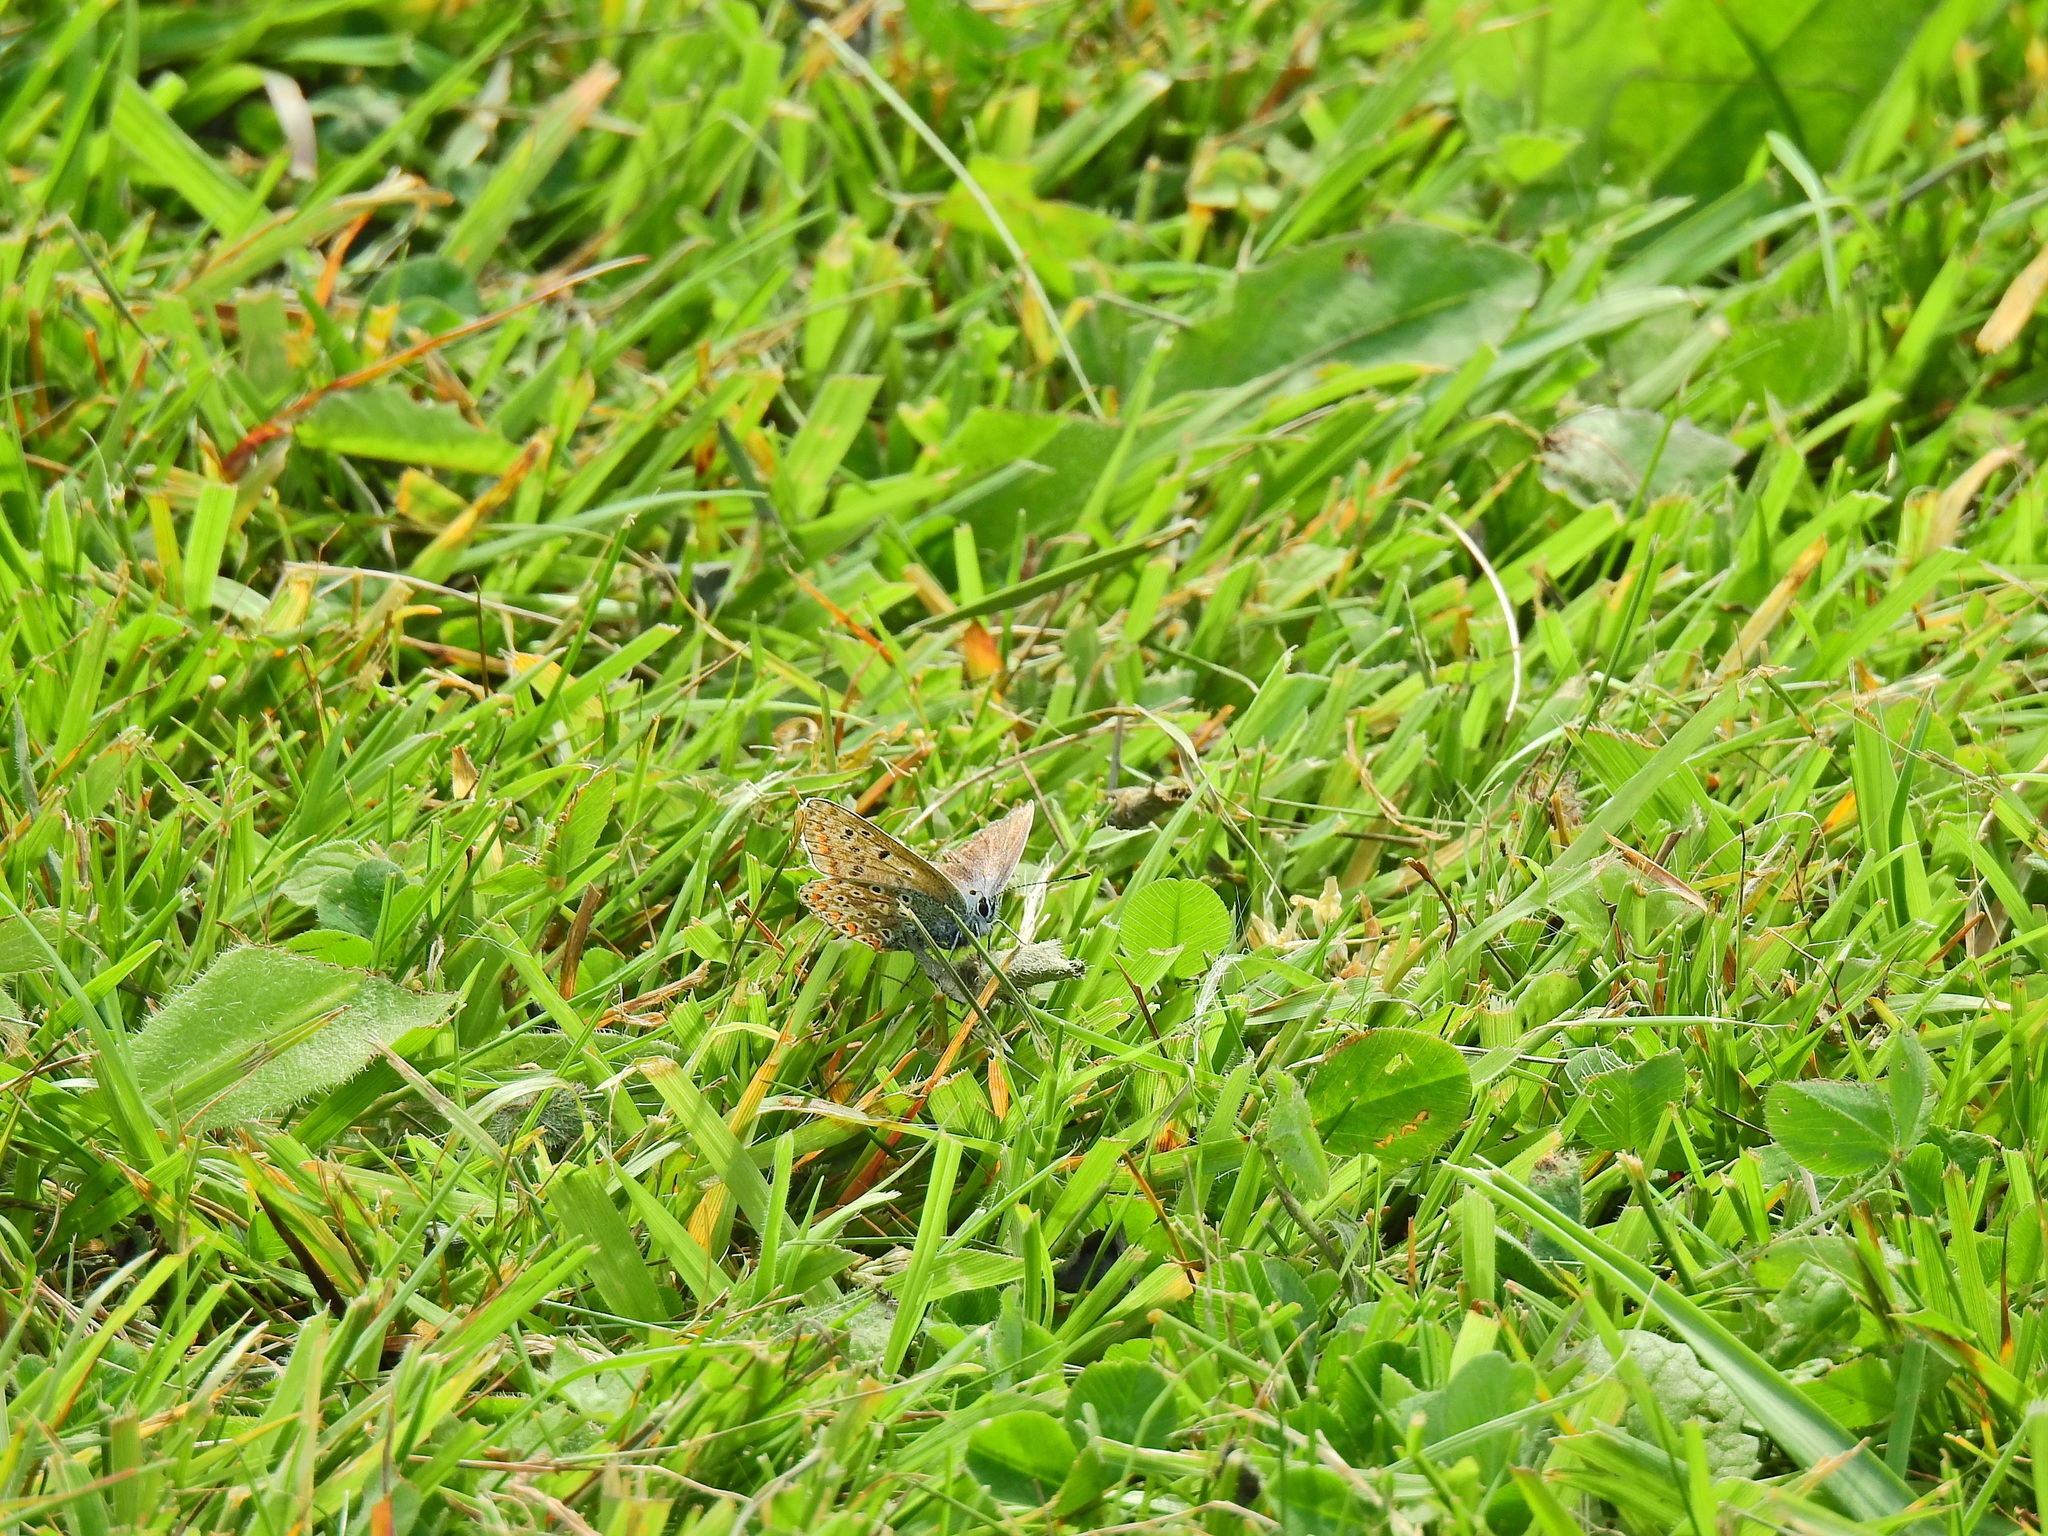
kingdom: Animalia
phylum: Arthropoda
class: Insecta
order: Lepidoptera
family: Lycaenidae
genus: Polyommatus
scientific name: Polyommatus icarus
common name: Common blue
